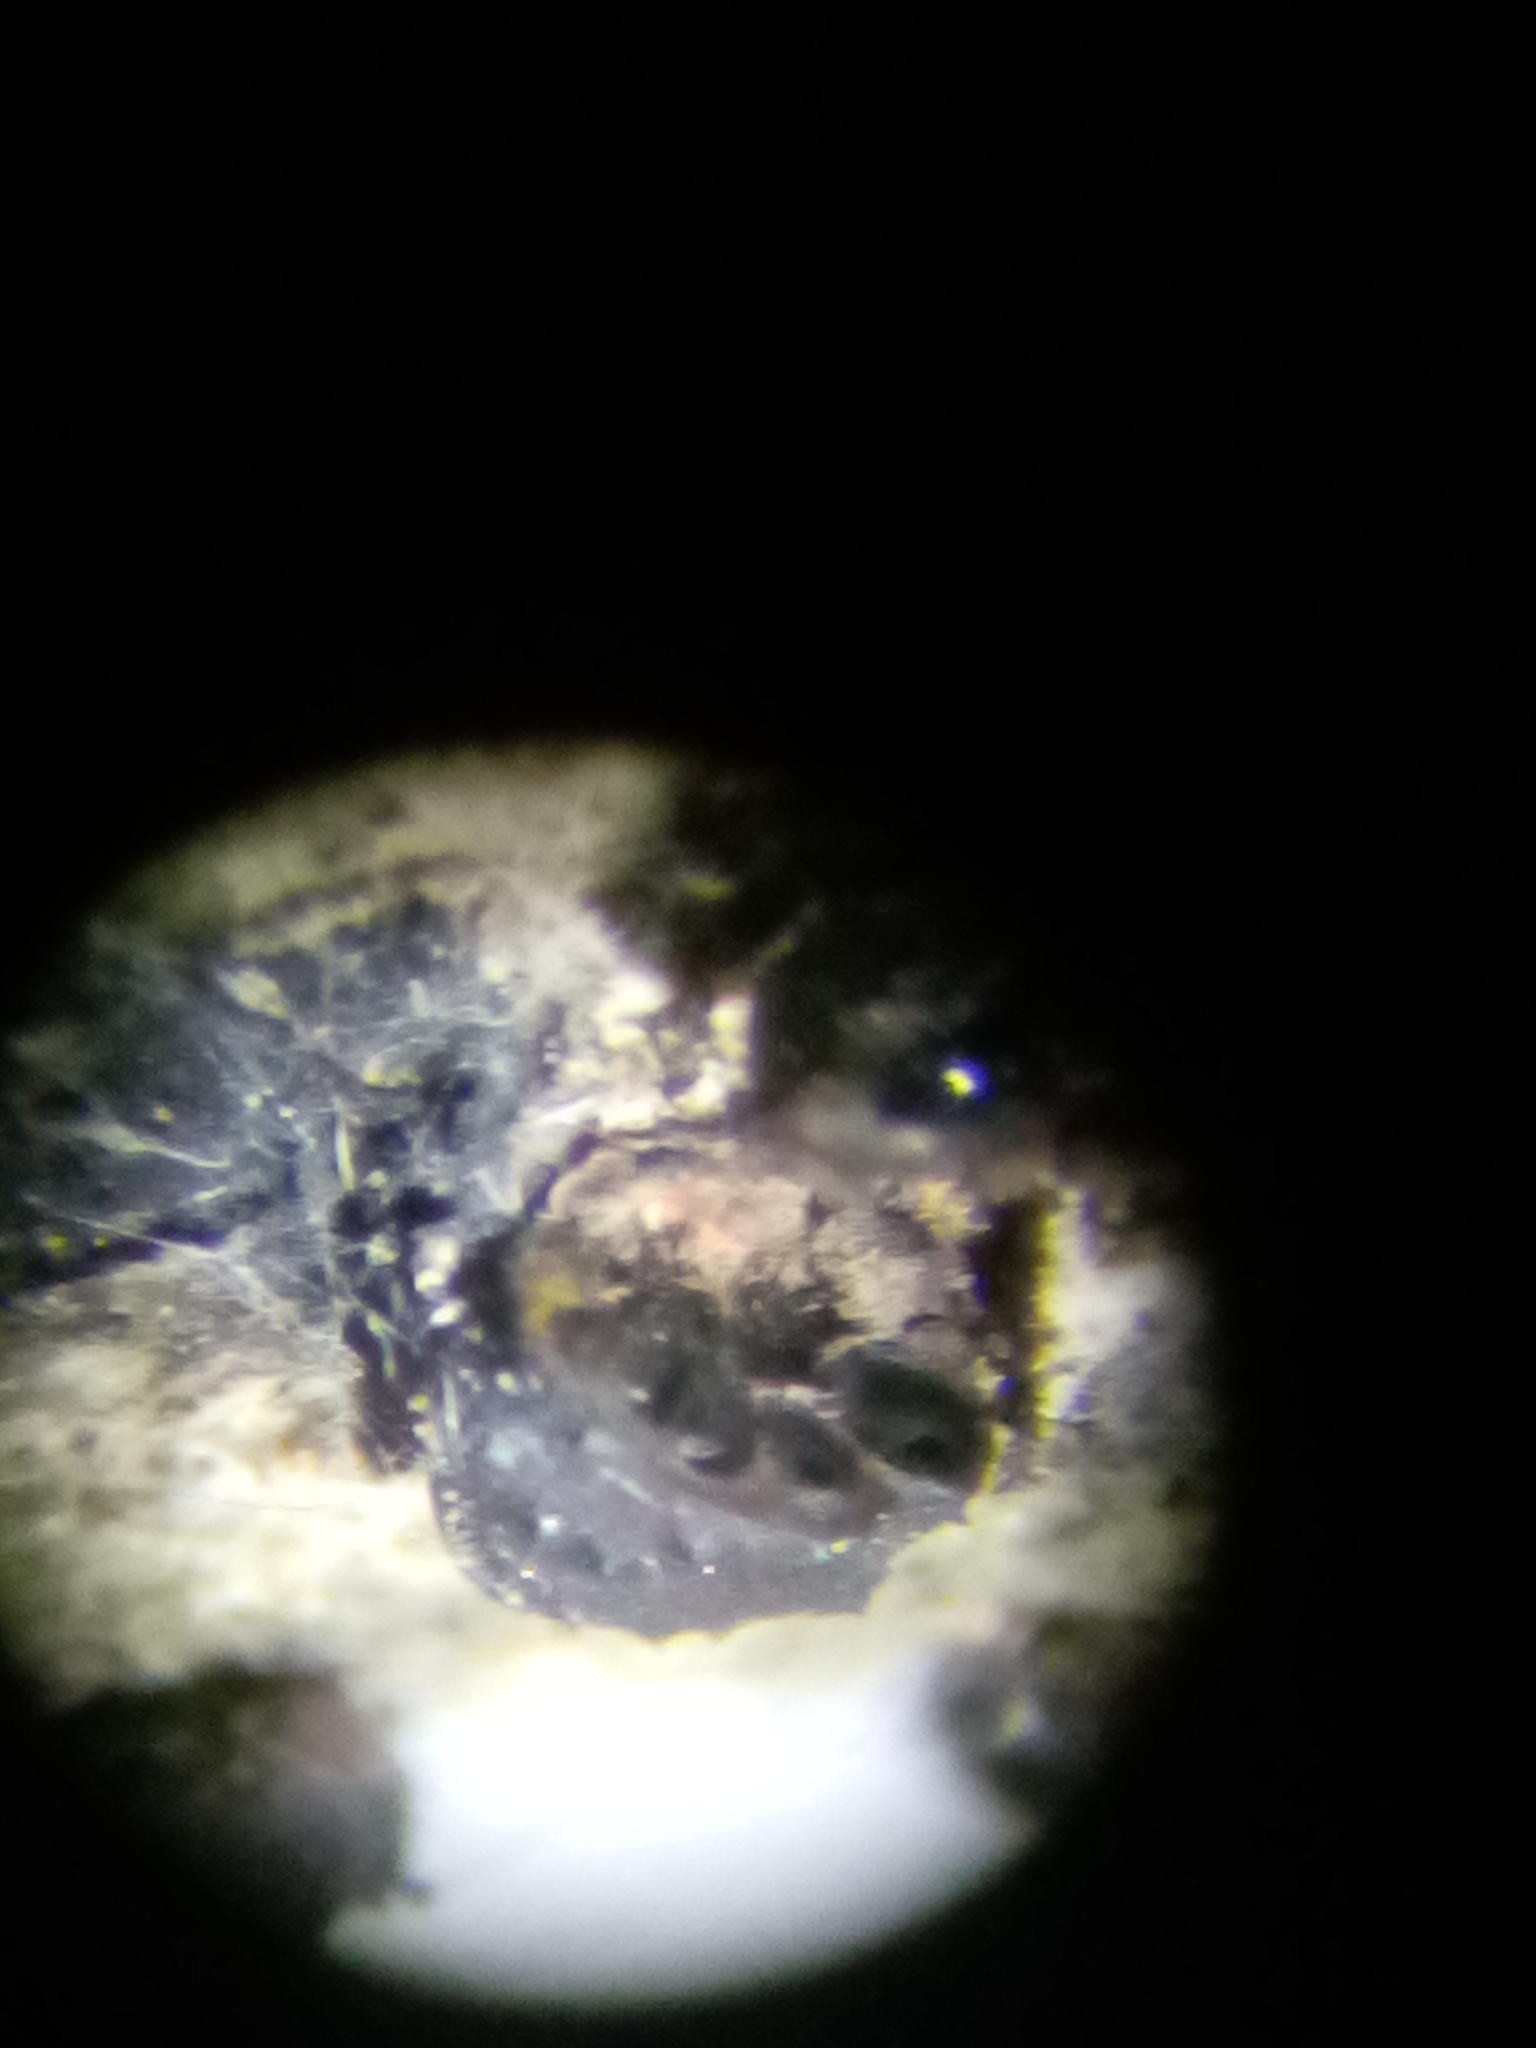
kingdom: Fungi
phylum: Ascomycota
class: Sordariomycetes
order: Xylariales
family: Hypoxylaceae
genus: Jackrogersella
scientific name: Jackrogersella cohaerens
